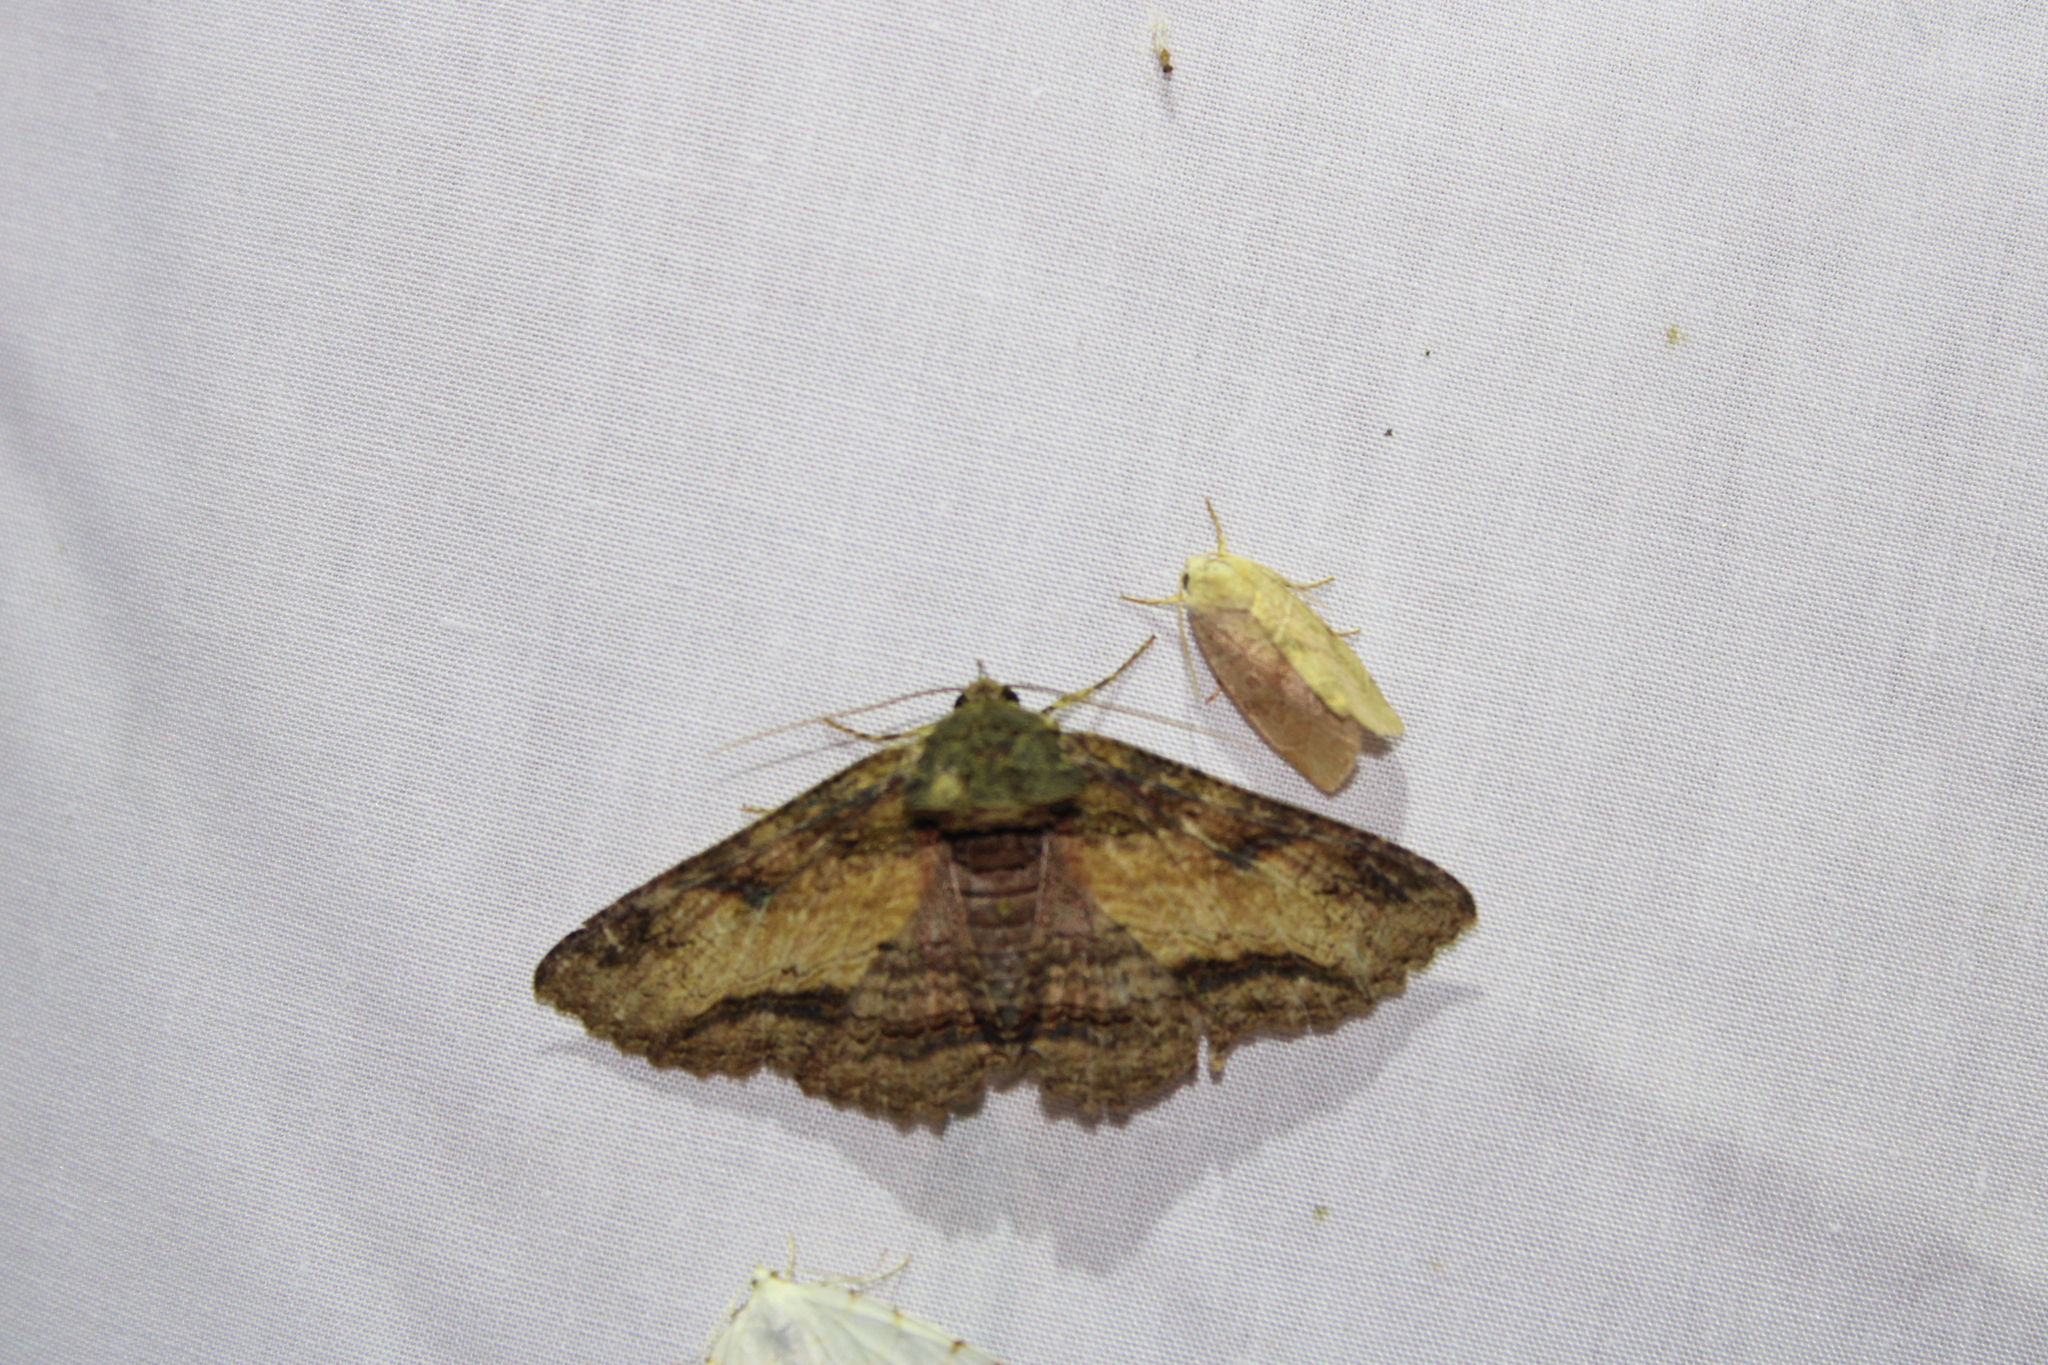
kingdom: Animalia
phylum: Arthropoda
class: Insecta
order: Lepidoptera
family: Erebidae
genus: Zale
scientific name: Zale lunata
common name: Lunate zale moth
